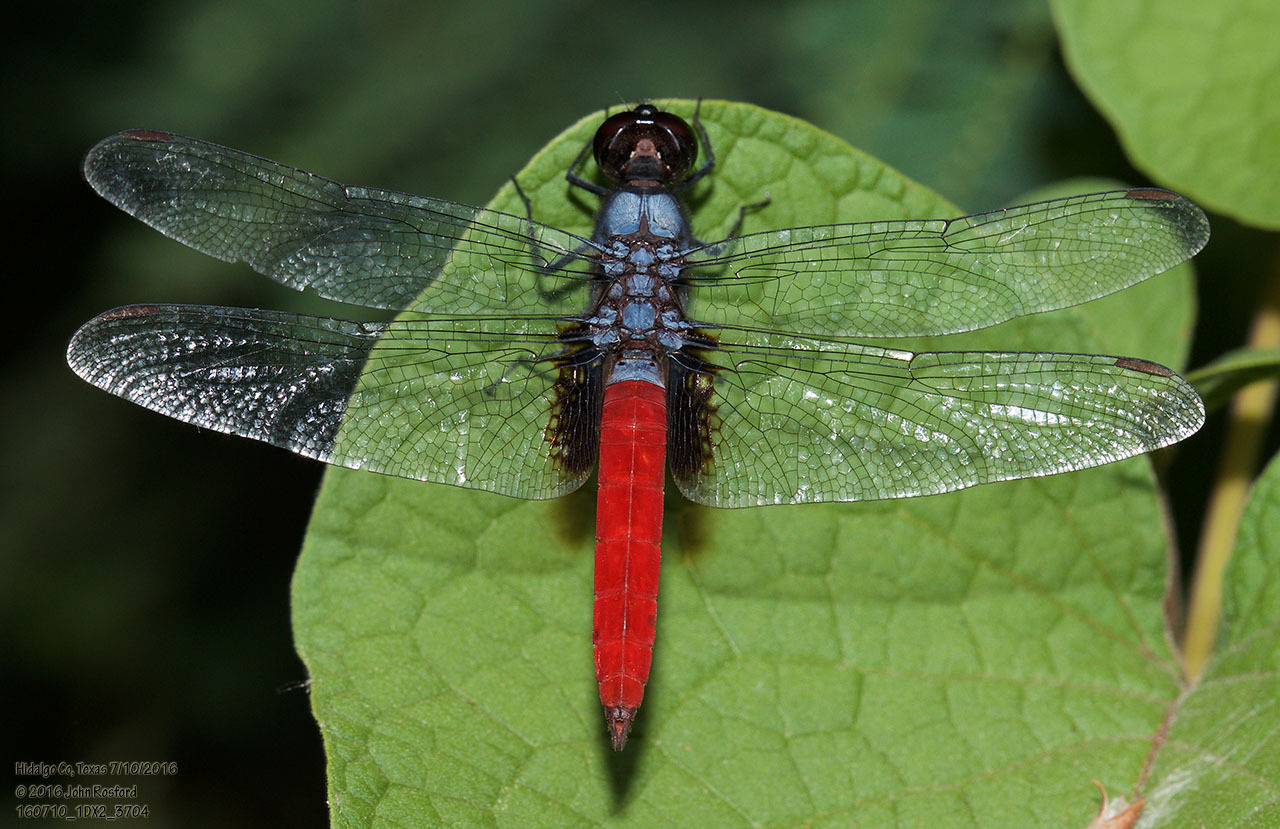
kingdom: Animalia
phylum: Arthropoda
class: Insecta
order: Odonata
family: Libellulidae
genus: Planiplax
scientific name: Planiplax sanguiniventris
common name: Mexican scarlet-tail
